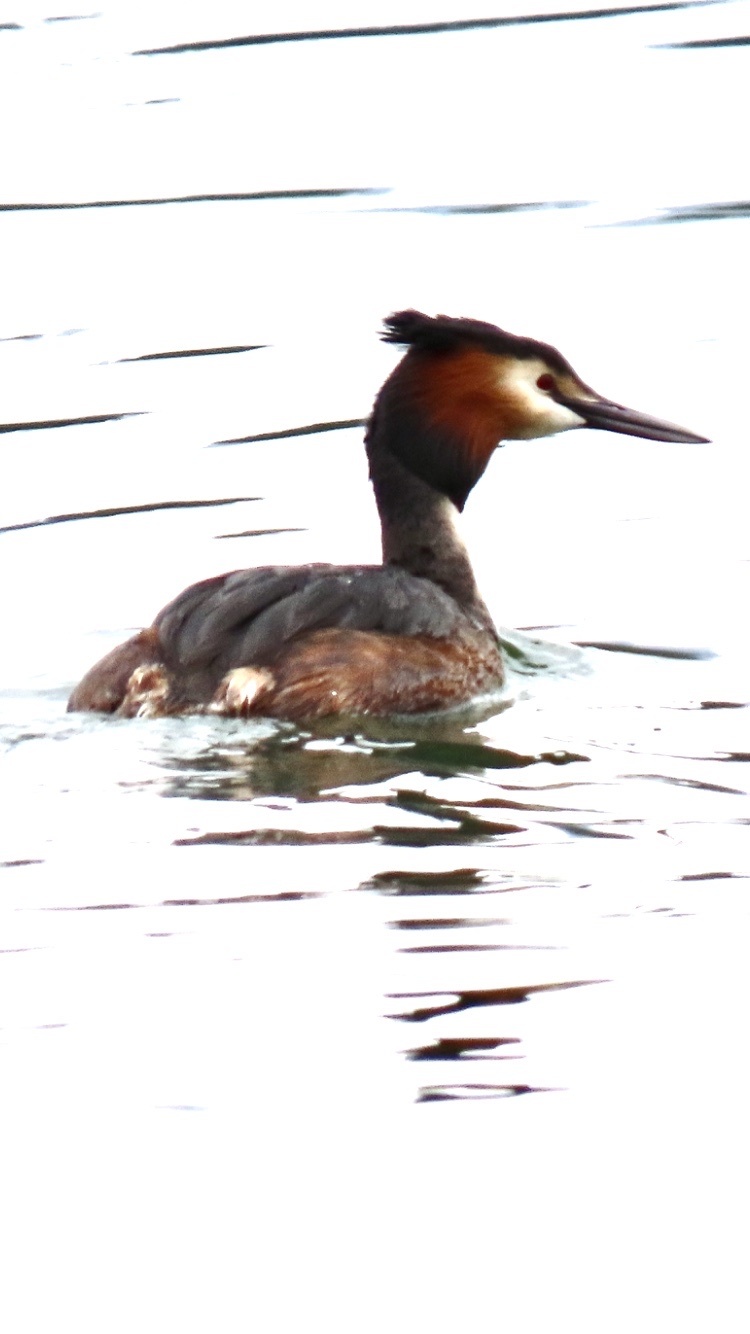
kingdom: Animalia
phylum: Chordata
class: Aves
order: Podicipediformes
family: Podicipedidae
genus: Podiceps
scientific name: Podiceps cristatus
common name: Great crested grebe
